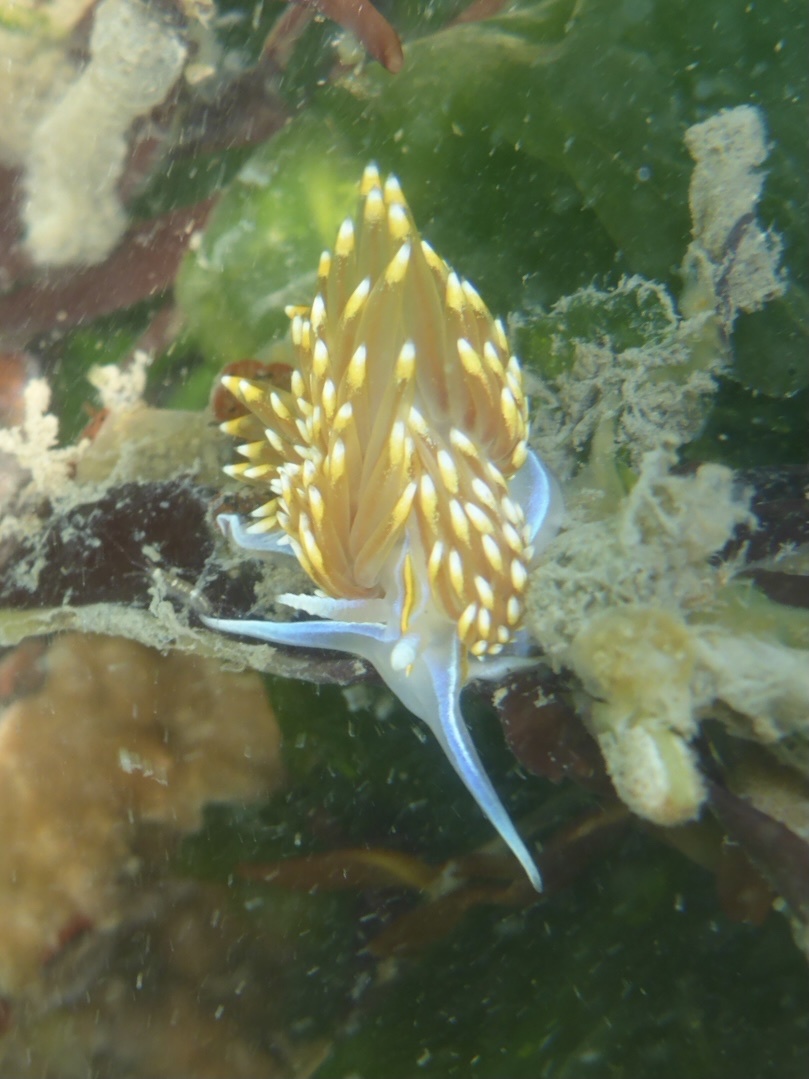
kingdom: Animalia
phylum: Mollusca
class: Gastropoda
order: Nudibranchia
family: Myrrhinidae
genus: Hermissenda
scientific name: Hermissenda opalescens
